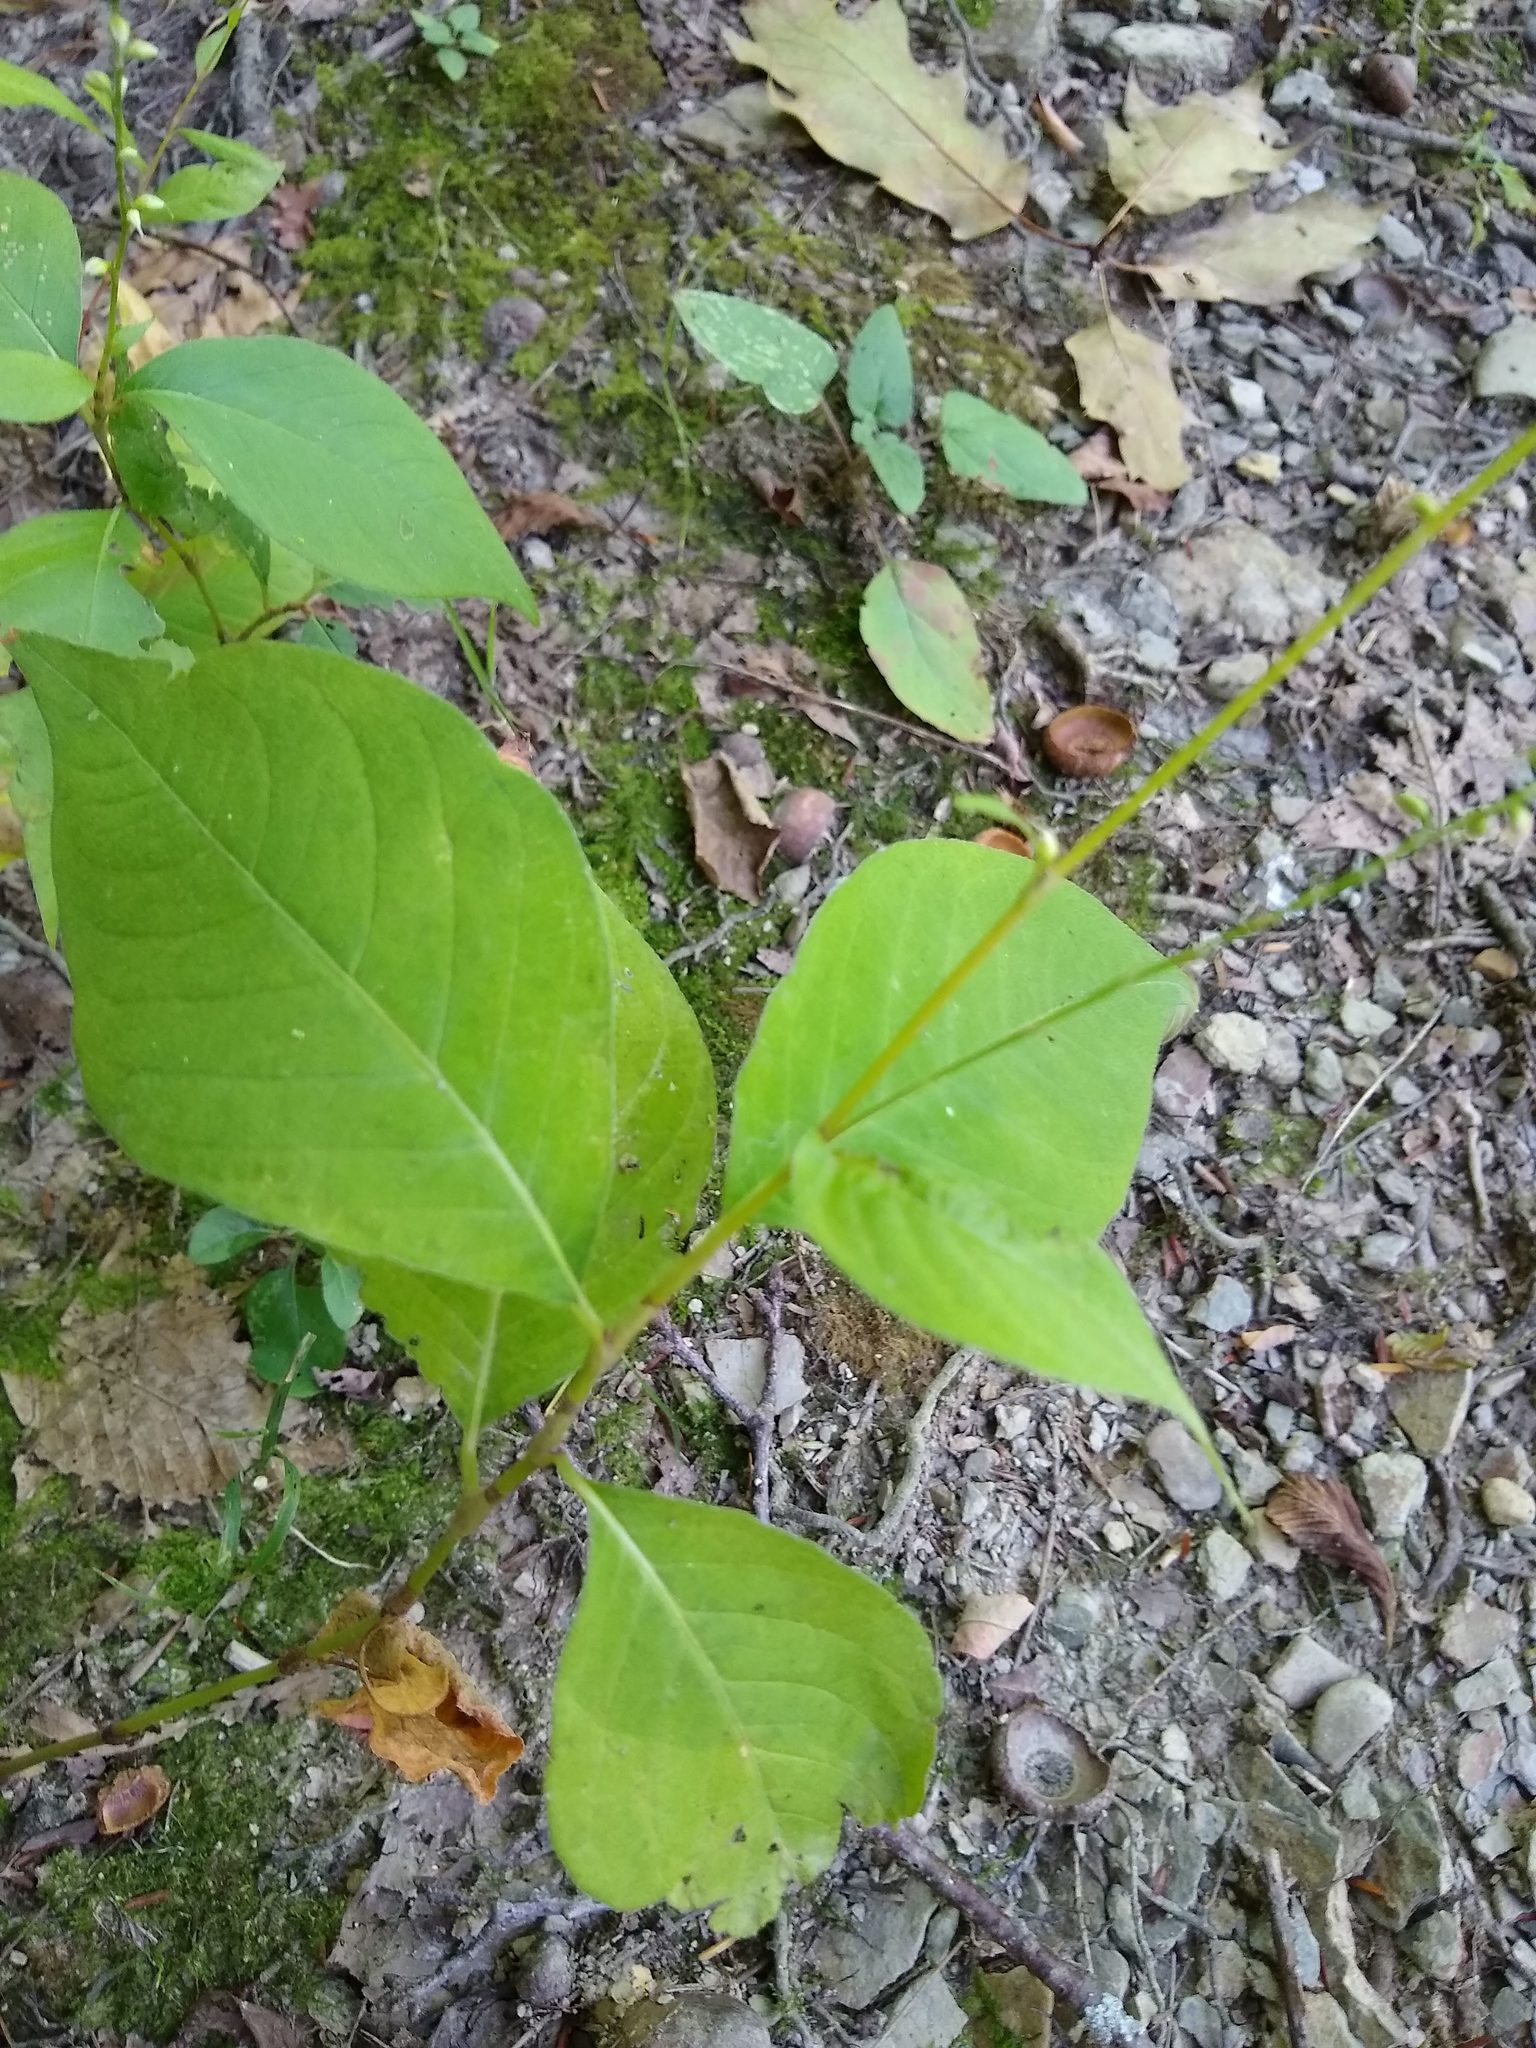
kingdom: Plantae
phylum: Tracheophyta
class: Magnoliopsida
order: Caryophyllales
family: Polygonaceae
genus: Persicaria
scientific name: Persicaria virginiana
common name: Jumpseed
